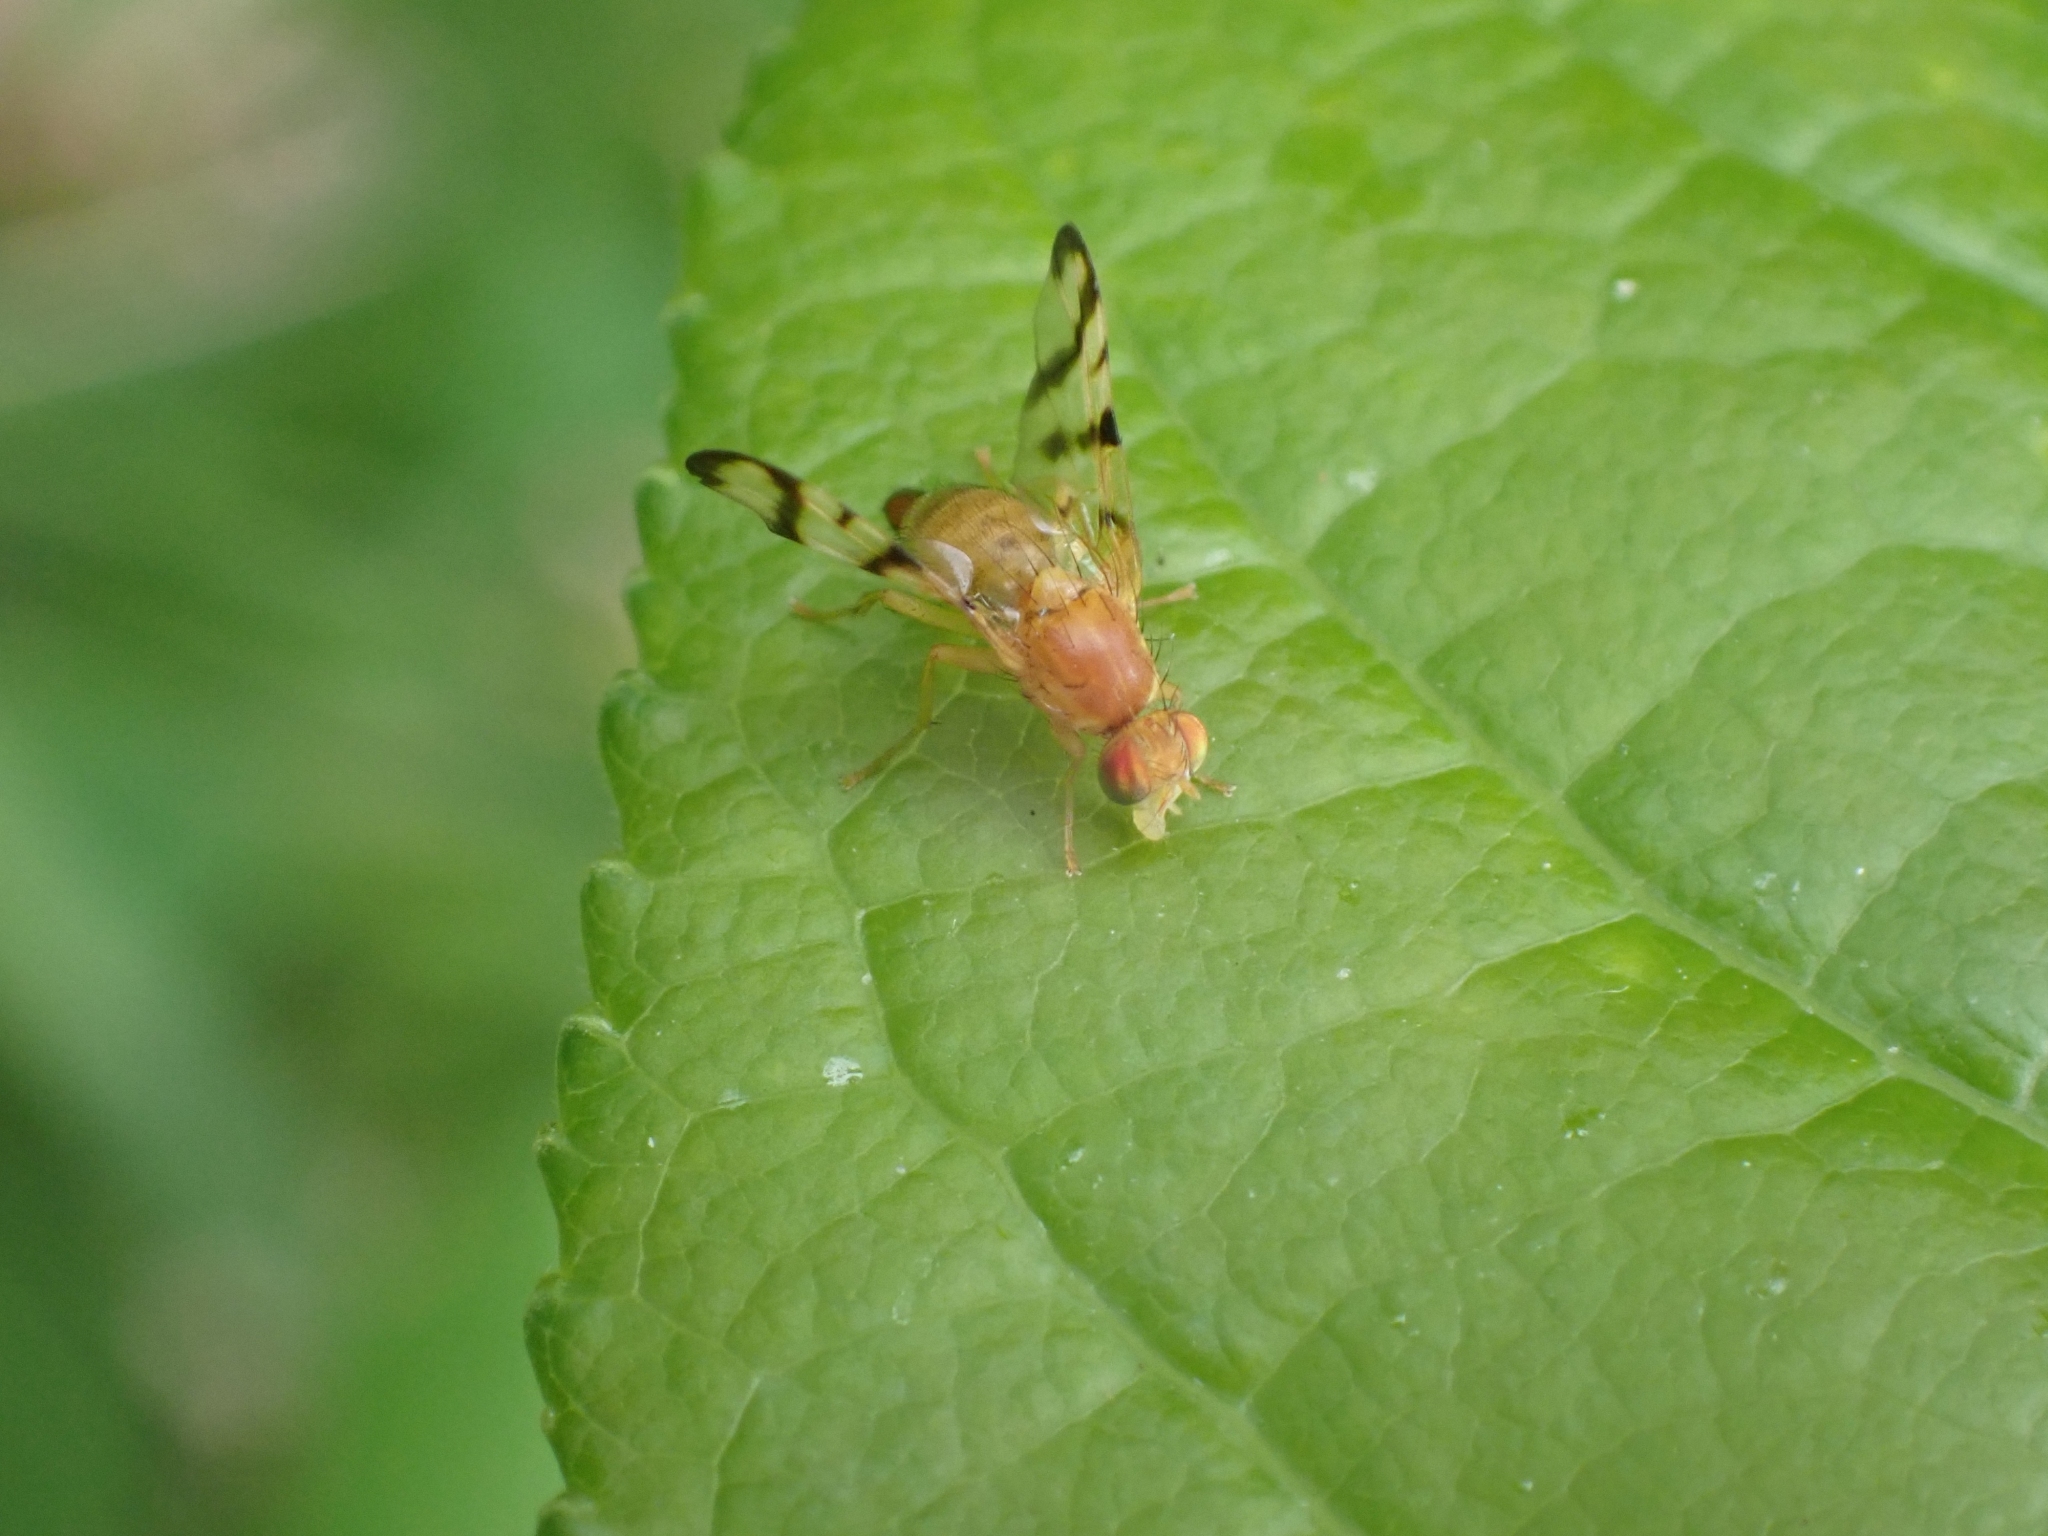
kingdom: Animalia
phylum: Arthropoda
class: Insecta
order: Diptera
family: Tephritidae
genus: Rhagoletis
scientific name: Rhagoletis basiola
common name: Rose hip fly
